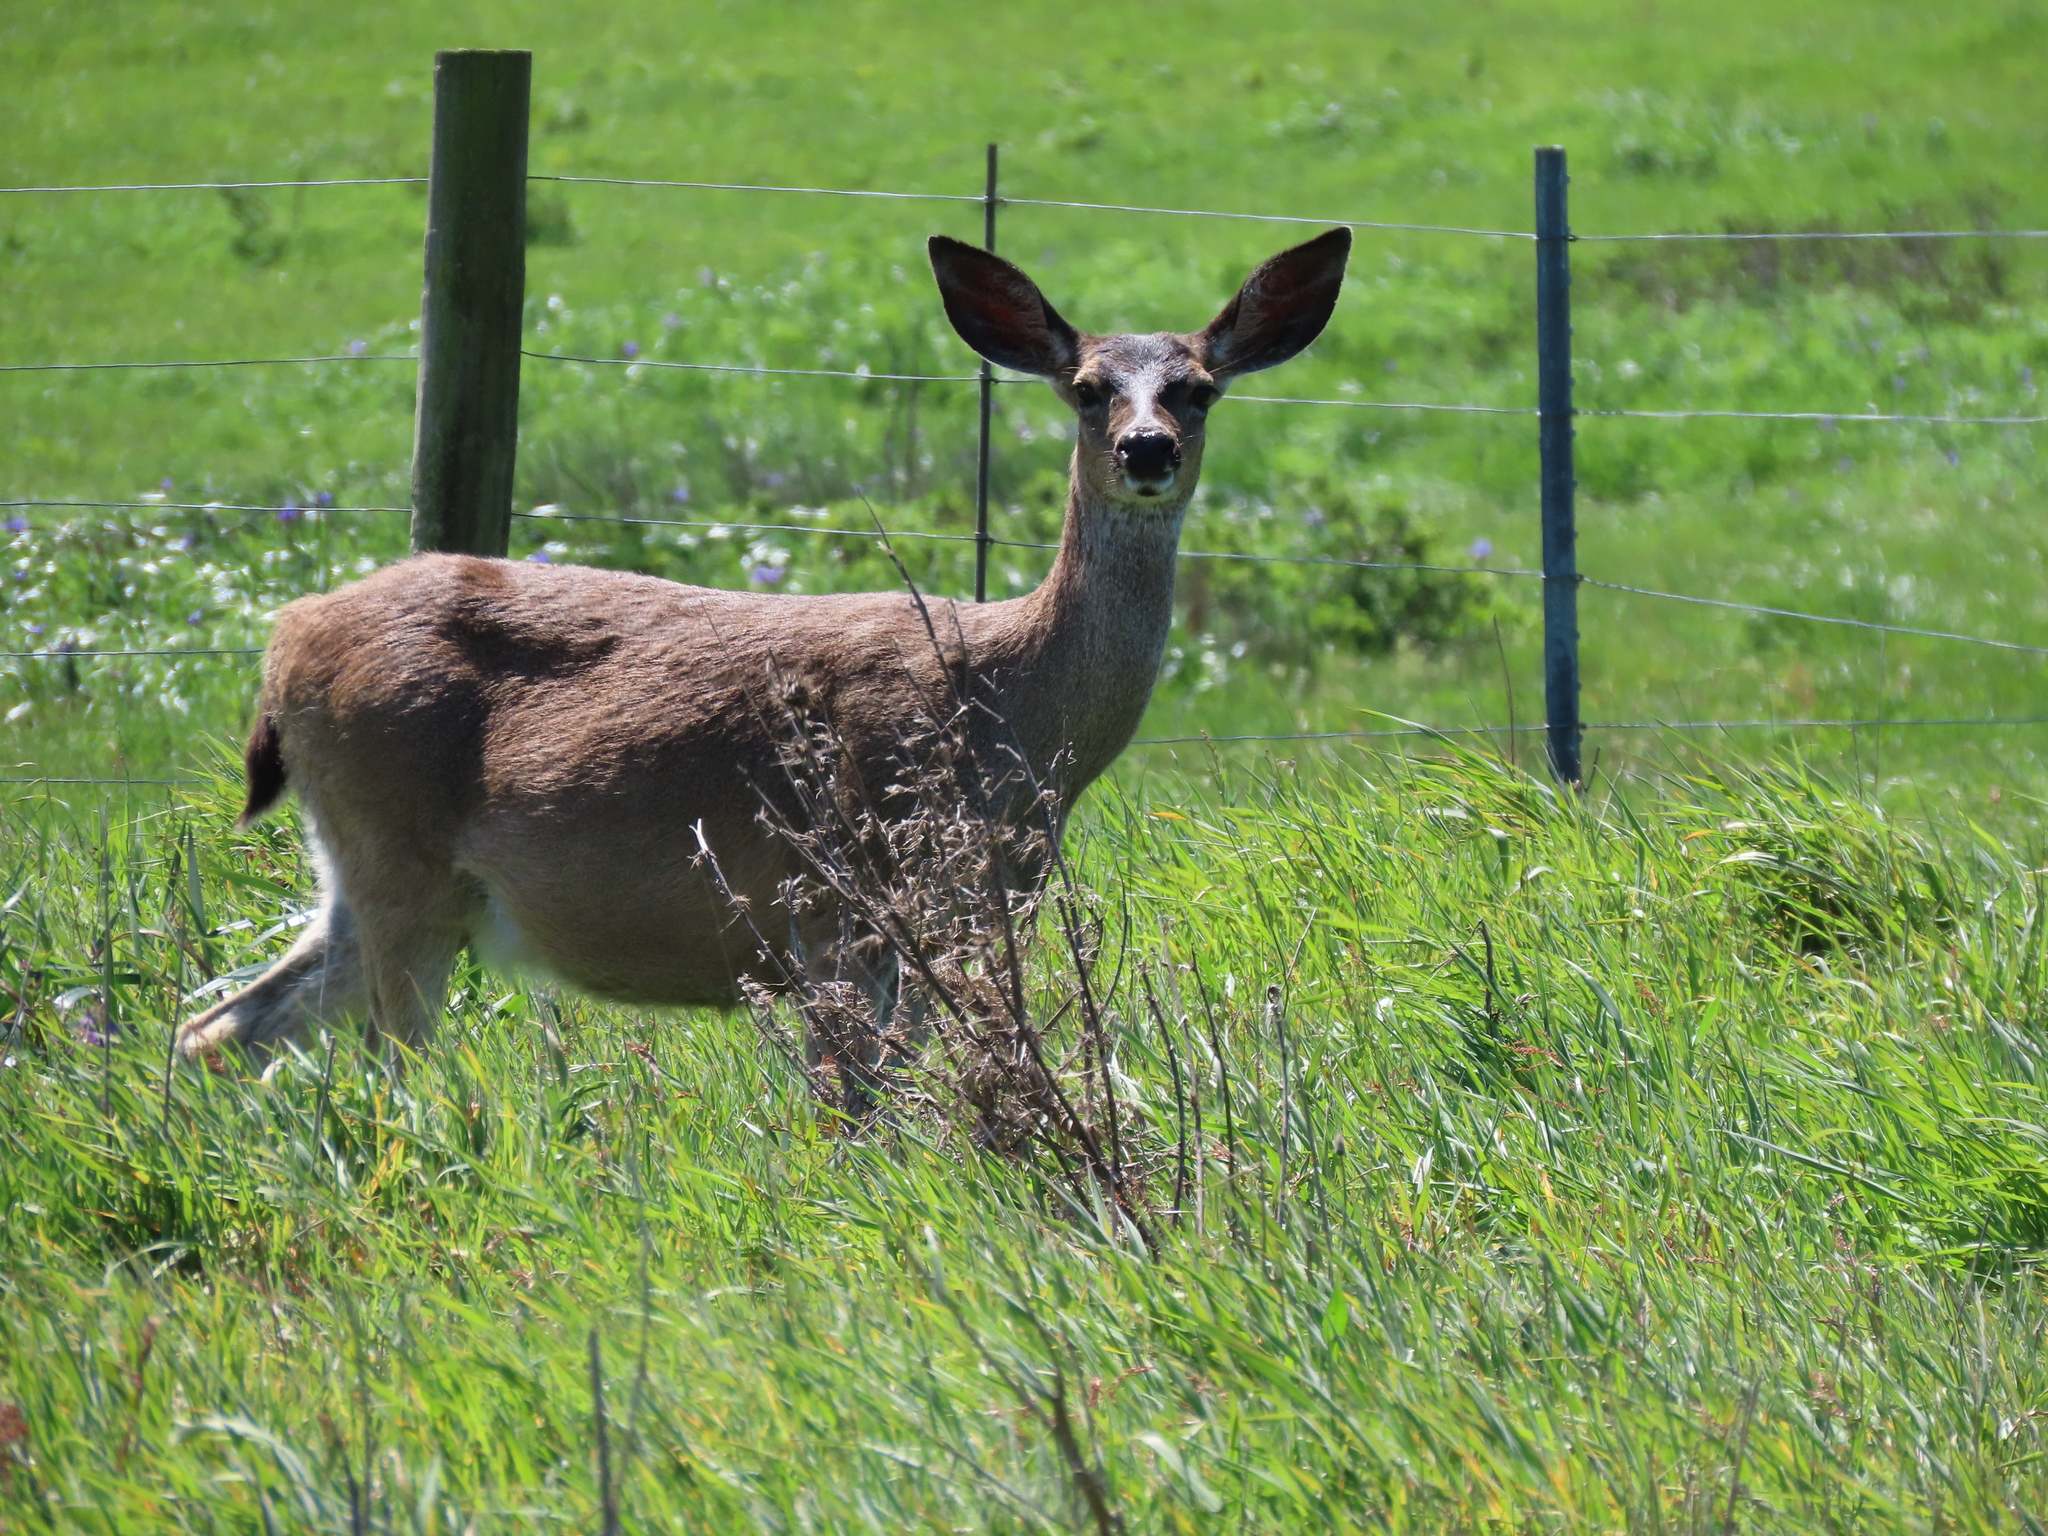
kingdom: Animalia
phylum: Chordata
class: Mammalia
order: Artiodactyla
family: Cervidae
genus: Odocoileus
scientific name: Odocoileus hemionus
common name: Mule deer
